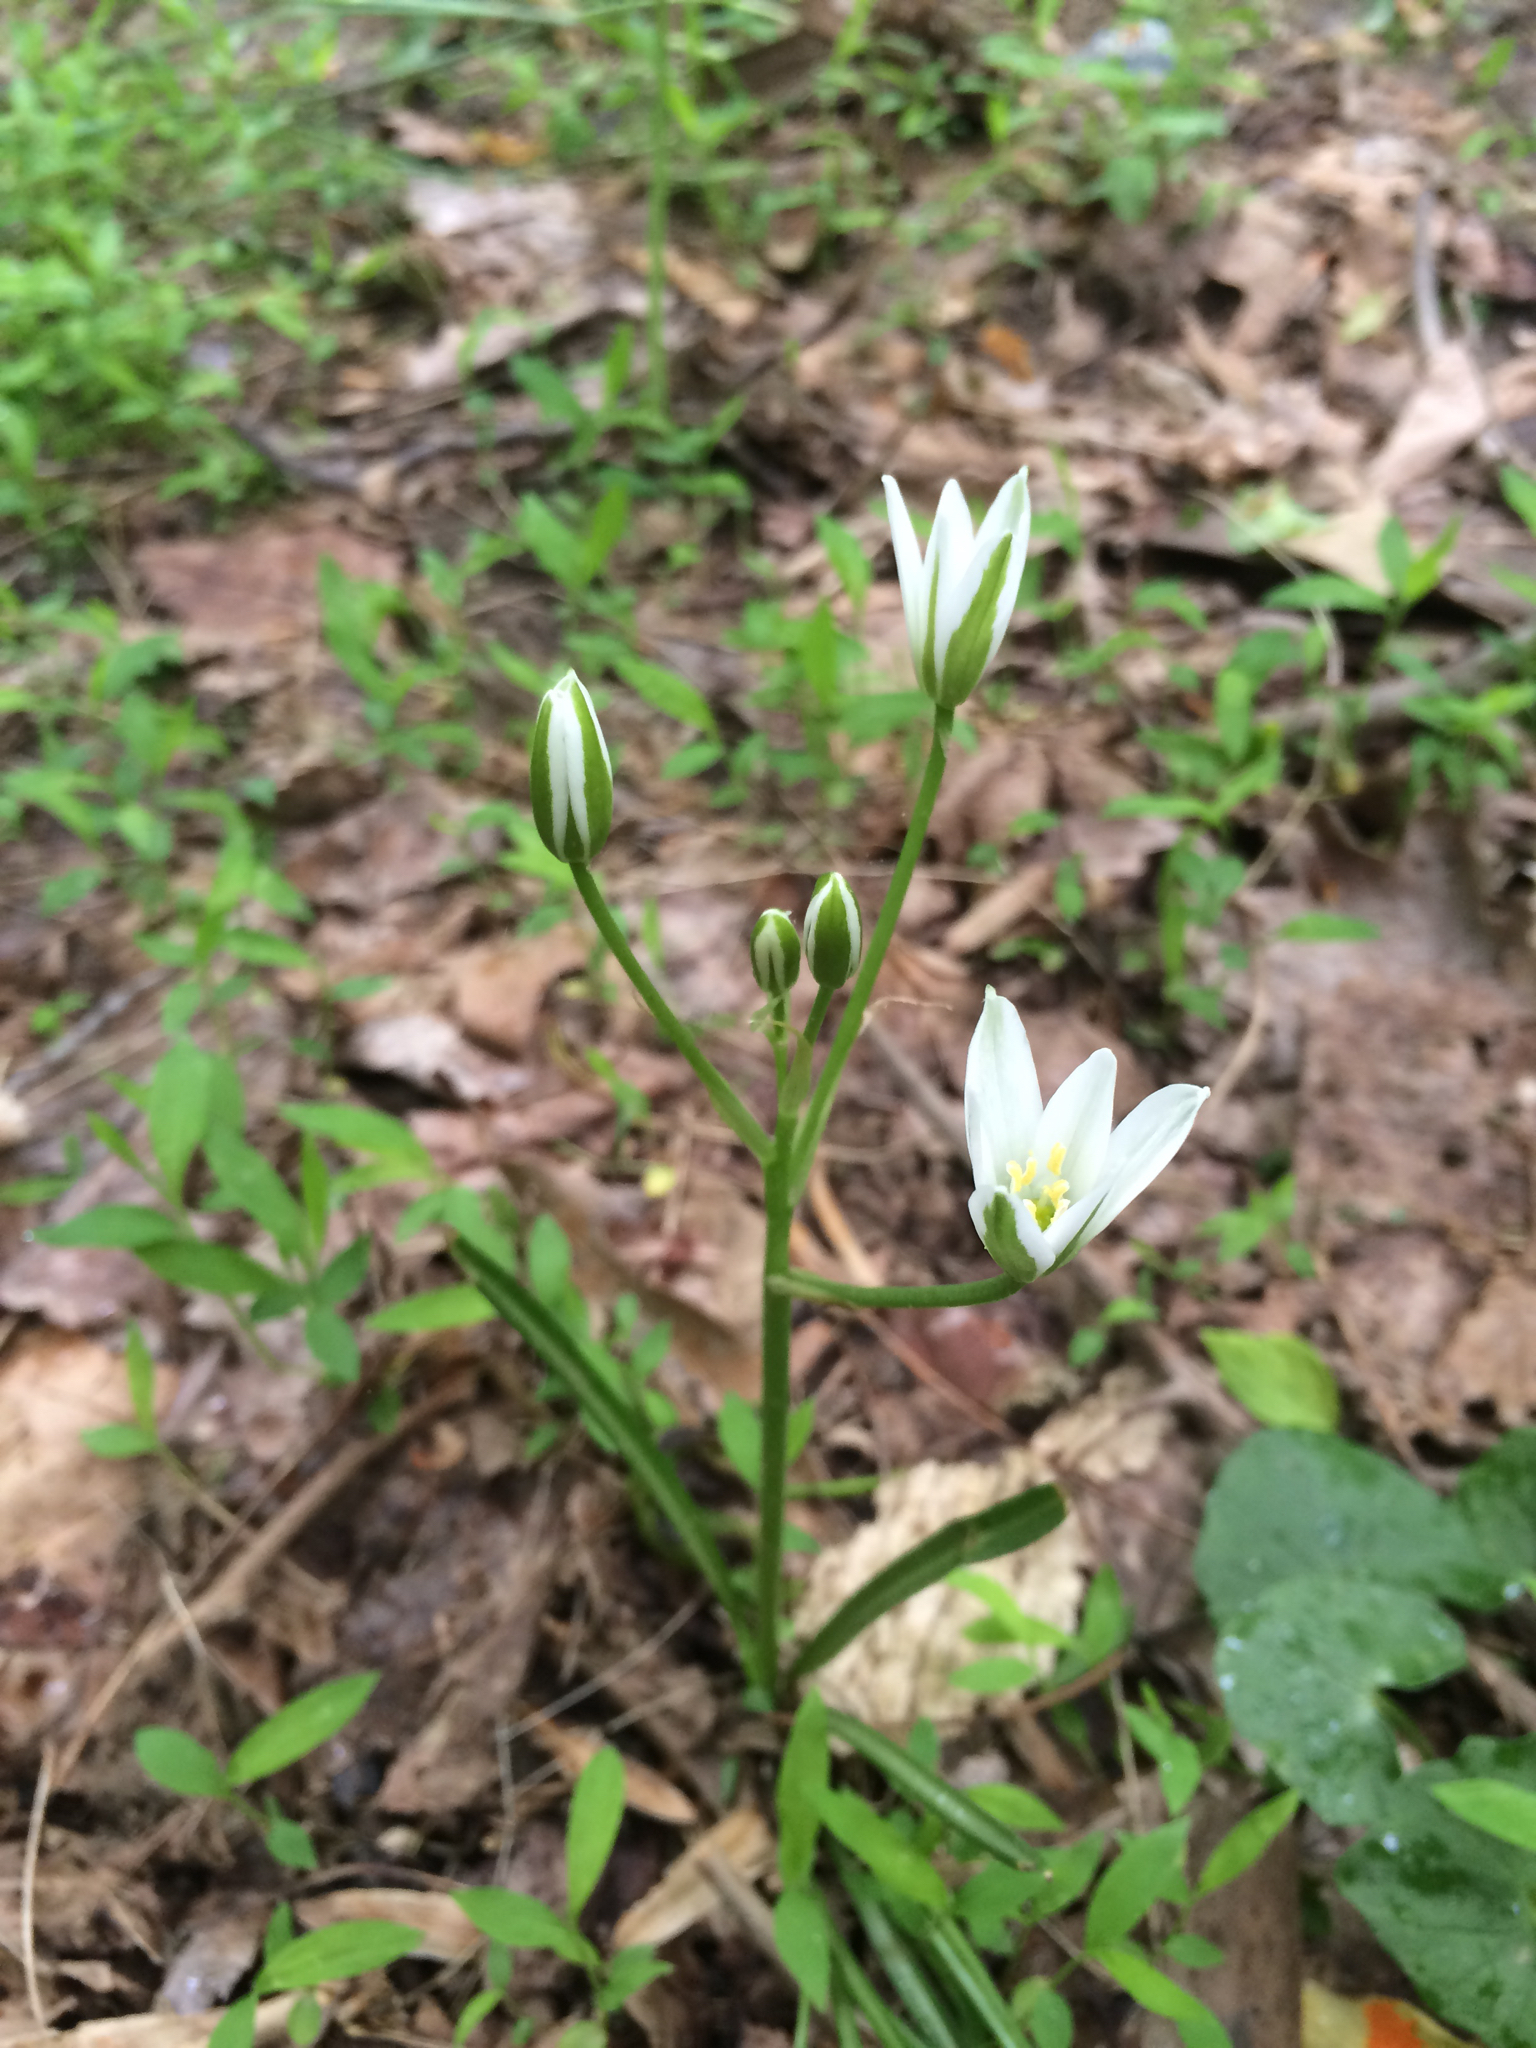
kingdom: Plantae
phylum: Tracheophyta
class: Liliopsida
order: Asparagales
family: Asparagaceae
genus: Ornithogalum
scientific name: Ornithogalum umbellatum
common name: Garden star-of-bethlehem
